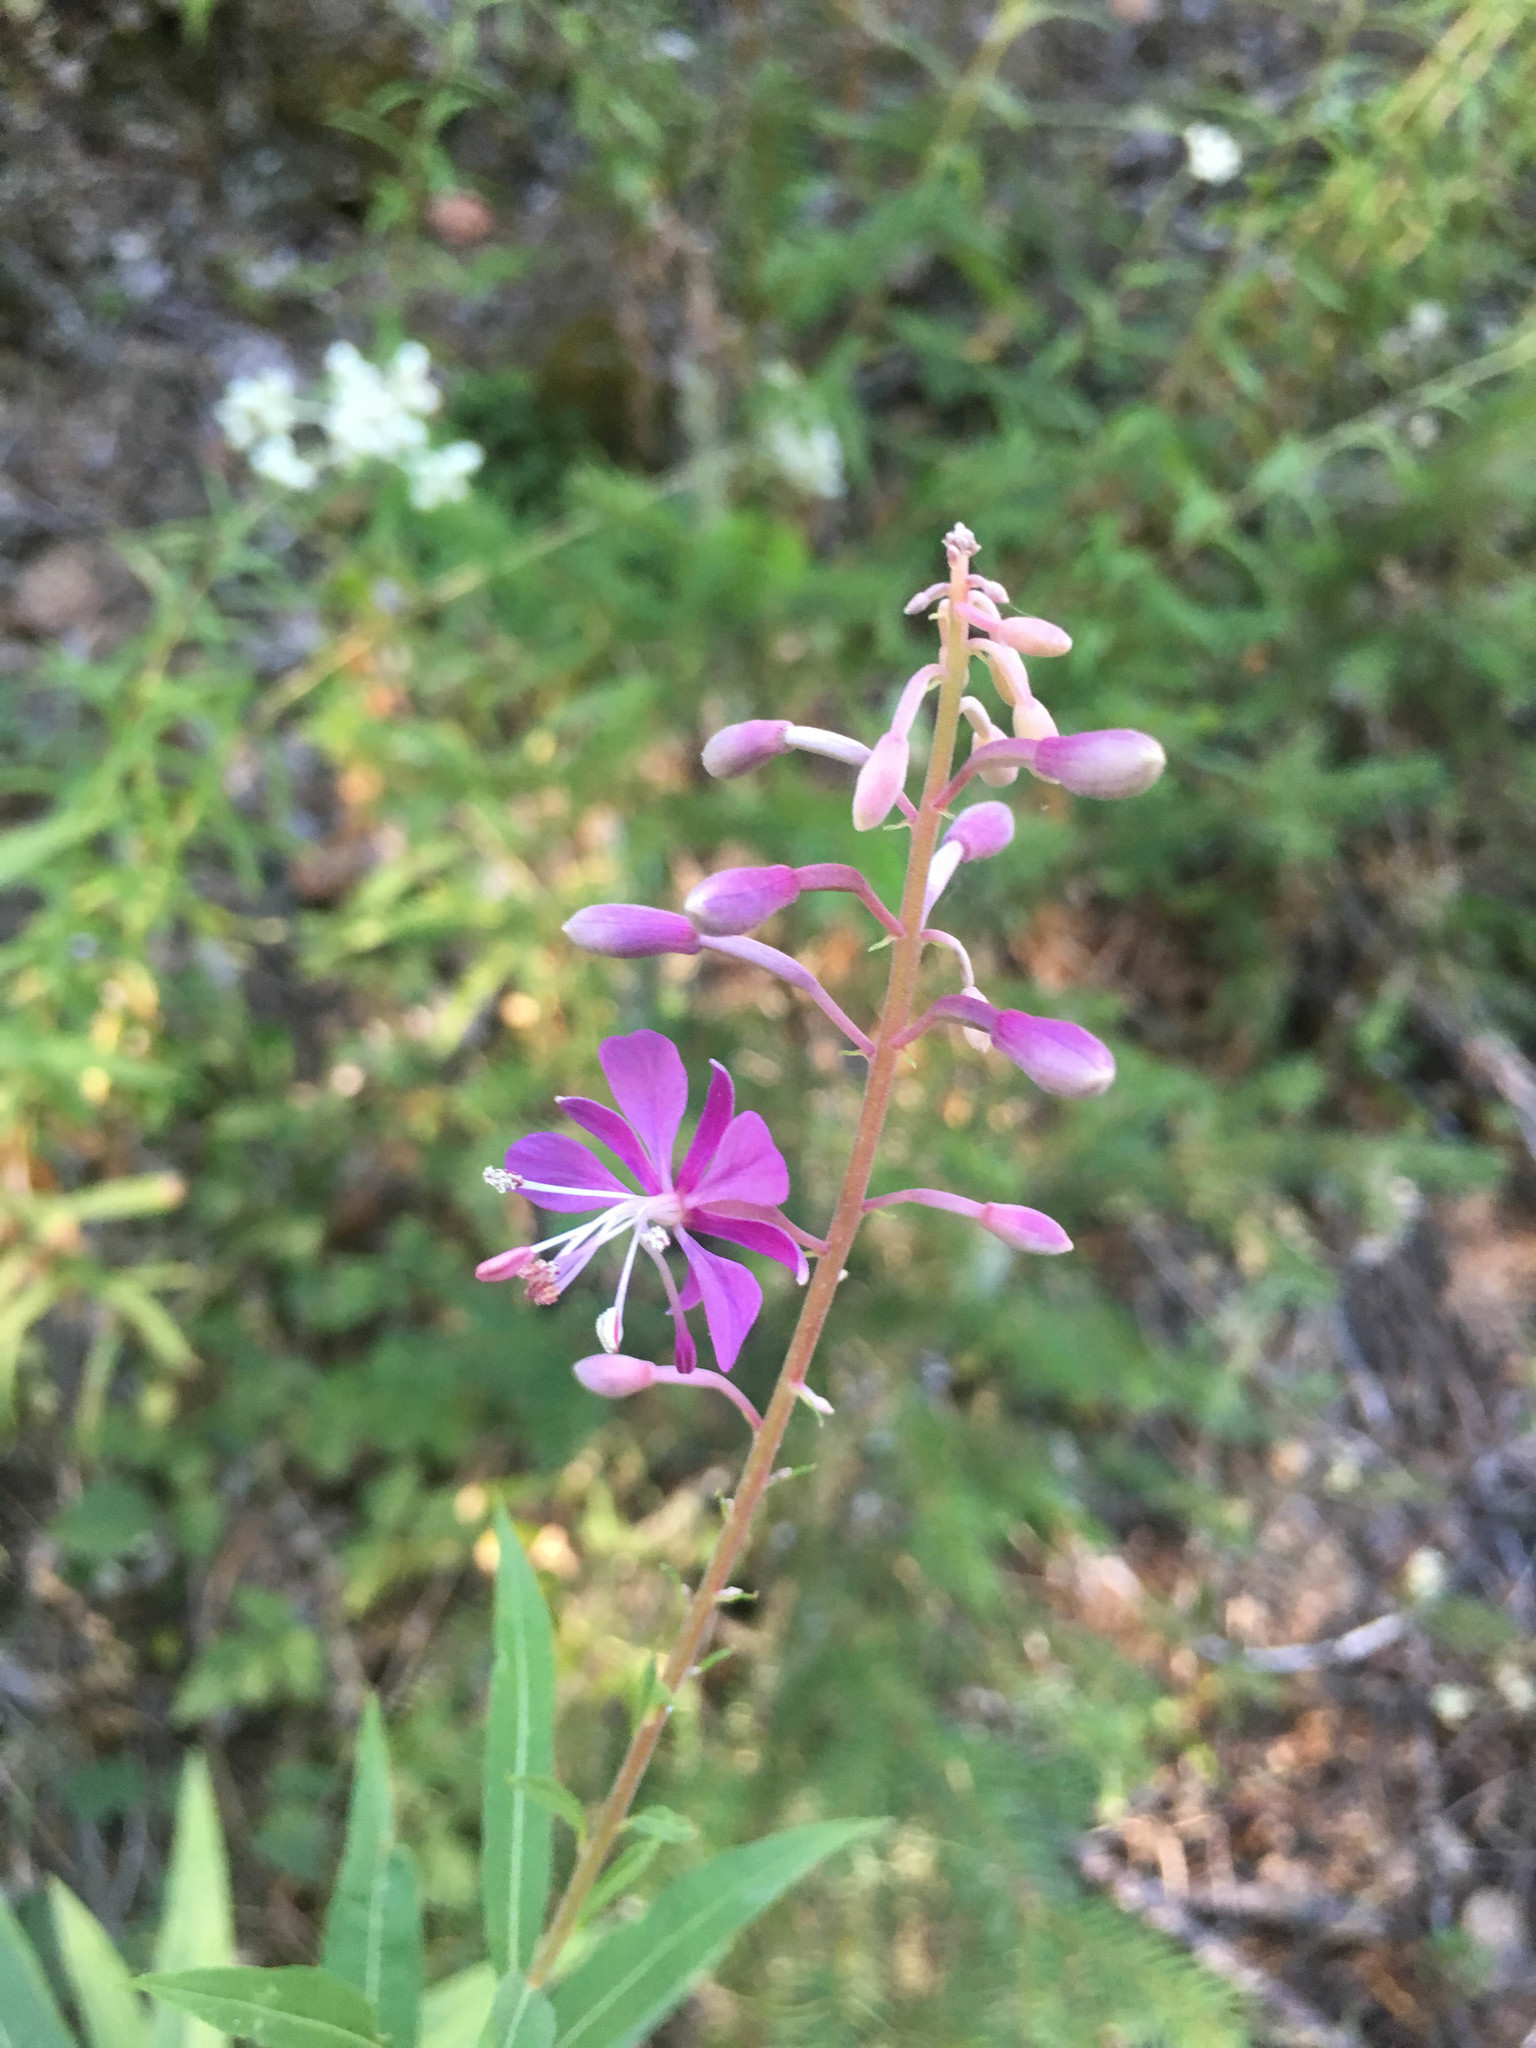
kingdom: Plantae
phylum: Tracheophyta
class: Magnoliopsida
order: Myrtales
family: Onagraceae
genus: Chamaenerion
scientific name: Chamaenerion angustifolium
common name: Fireweed
